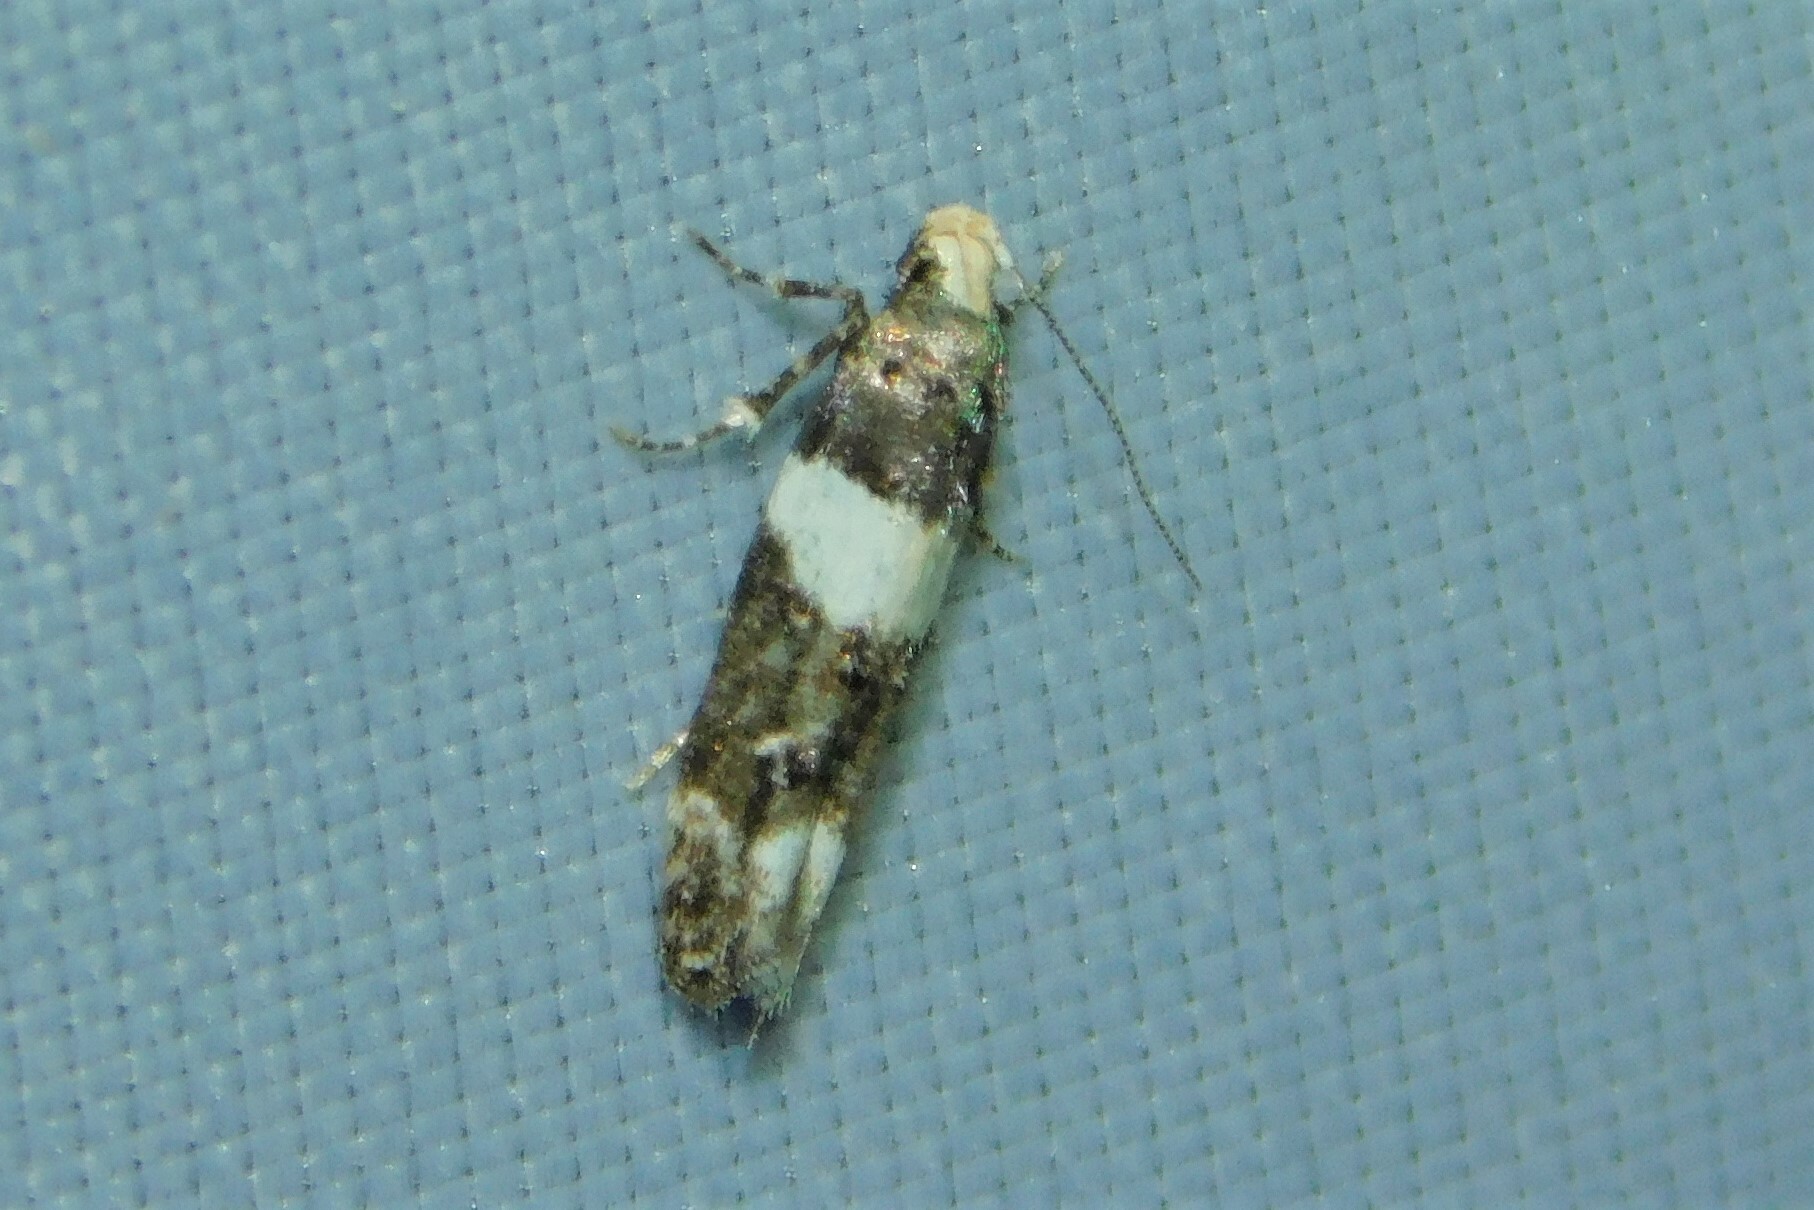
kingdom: Animalia
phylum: Arthropoda
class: Insecta
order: Lepidoptera
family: Gelechiidae
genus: Recurvaria
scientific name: Recurvaria leucatella
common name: White-barred groundling
